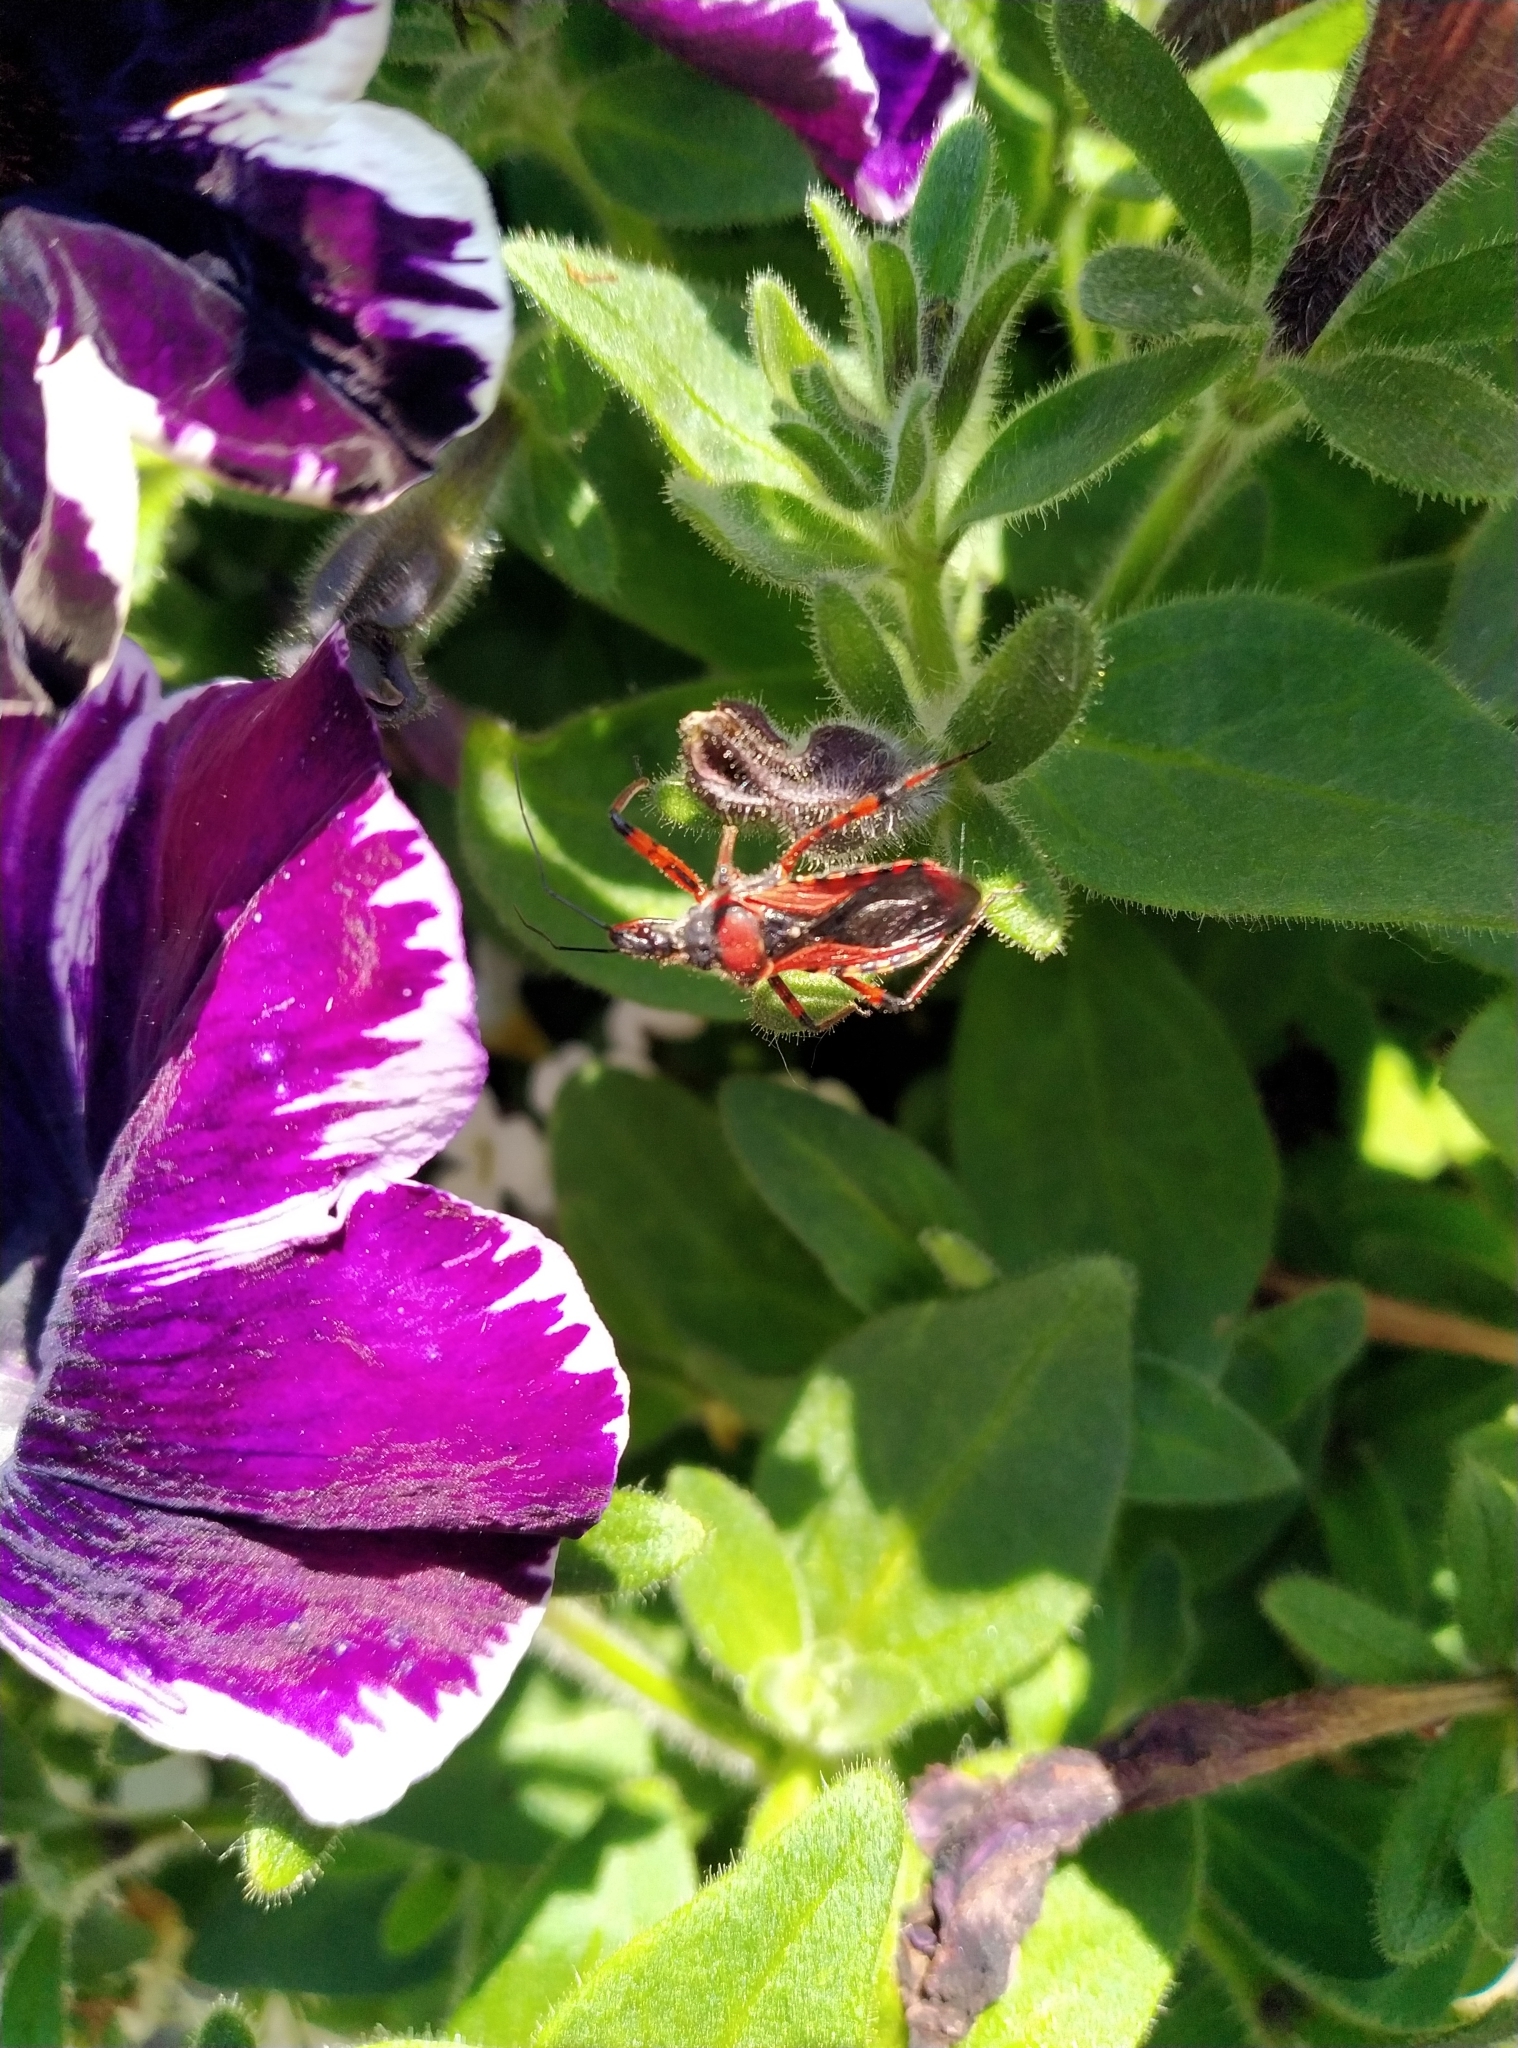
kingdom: Animalia
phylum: Arthropoda
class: Insecta
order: Hemiptera
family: Reduviidae
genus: Rhynocoris
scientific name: Rhynocoris iracundus
